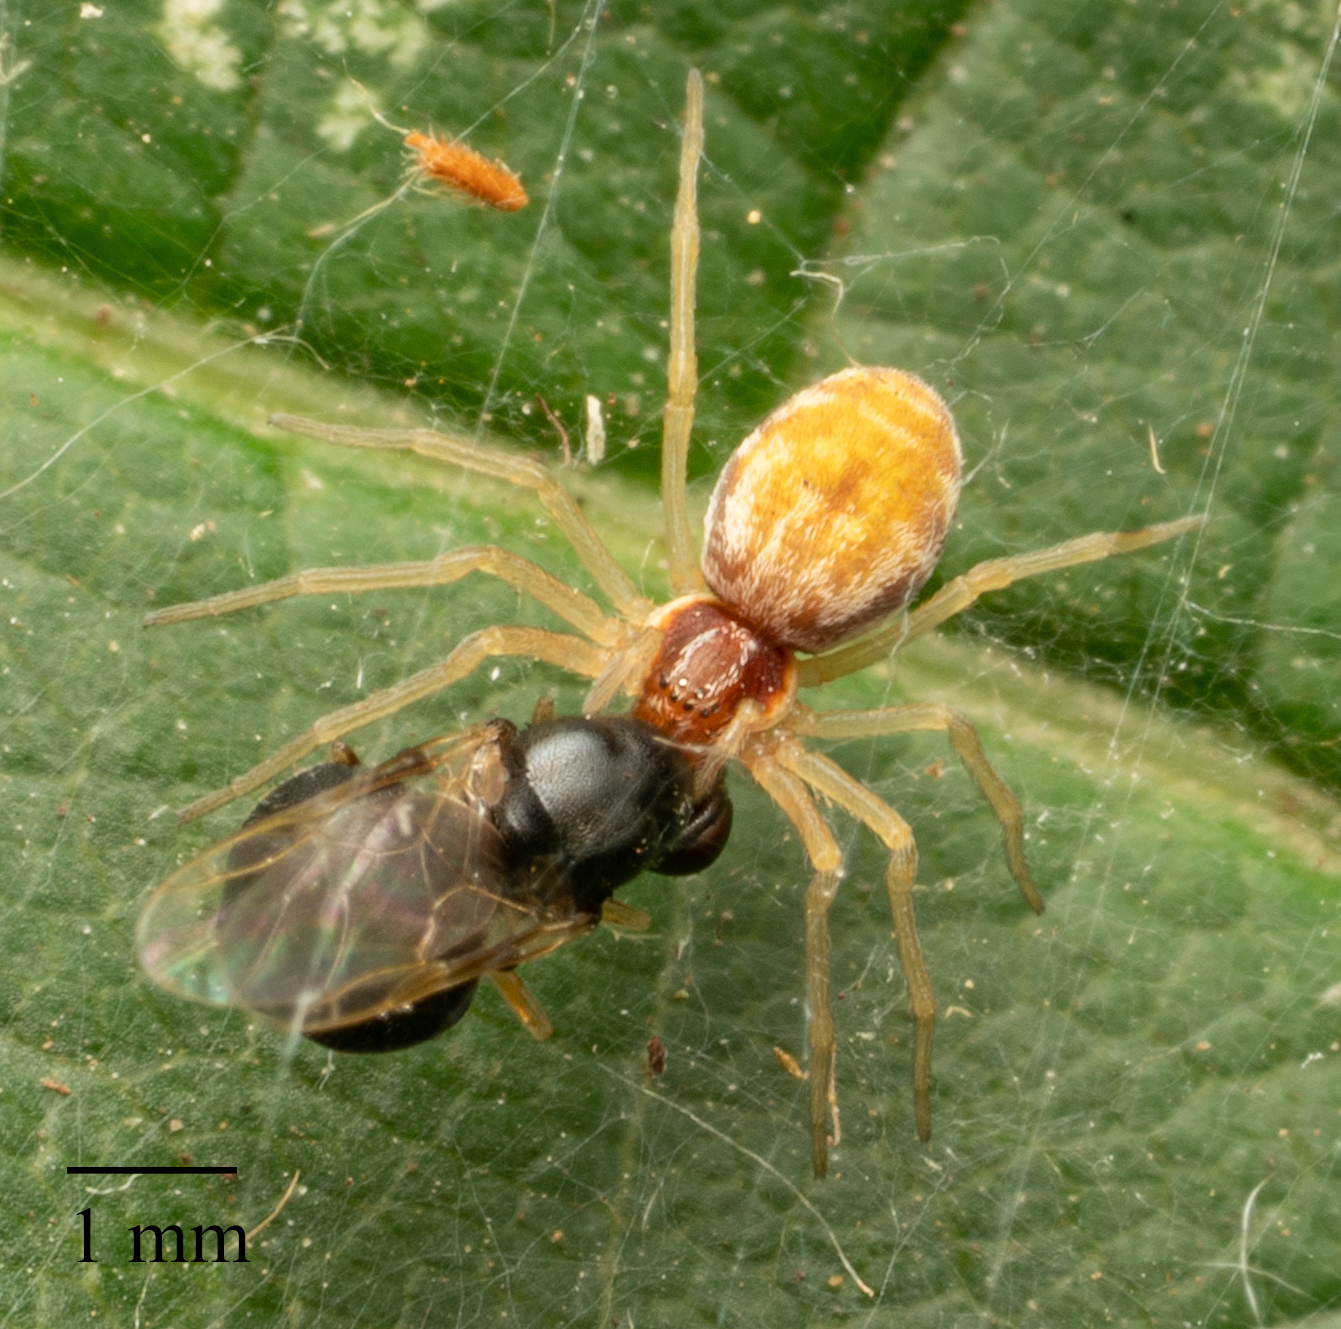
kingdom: Animalia
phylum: Arthropoda
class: Arachnida
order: Araneae
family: Dictynidae
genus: Nigma
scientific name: Nigma flavescens
